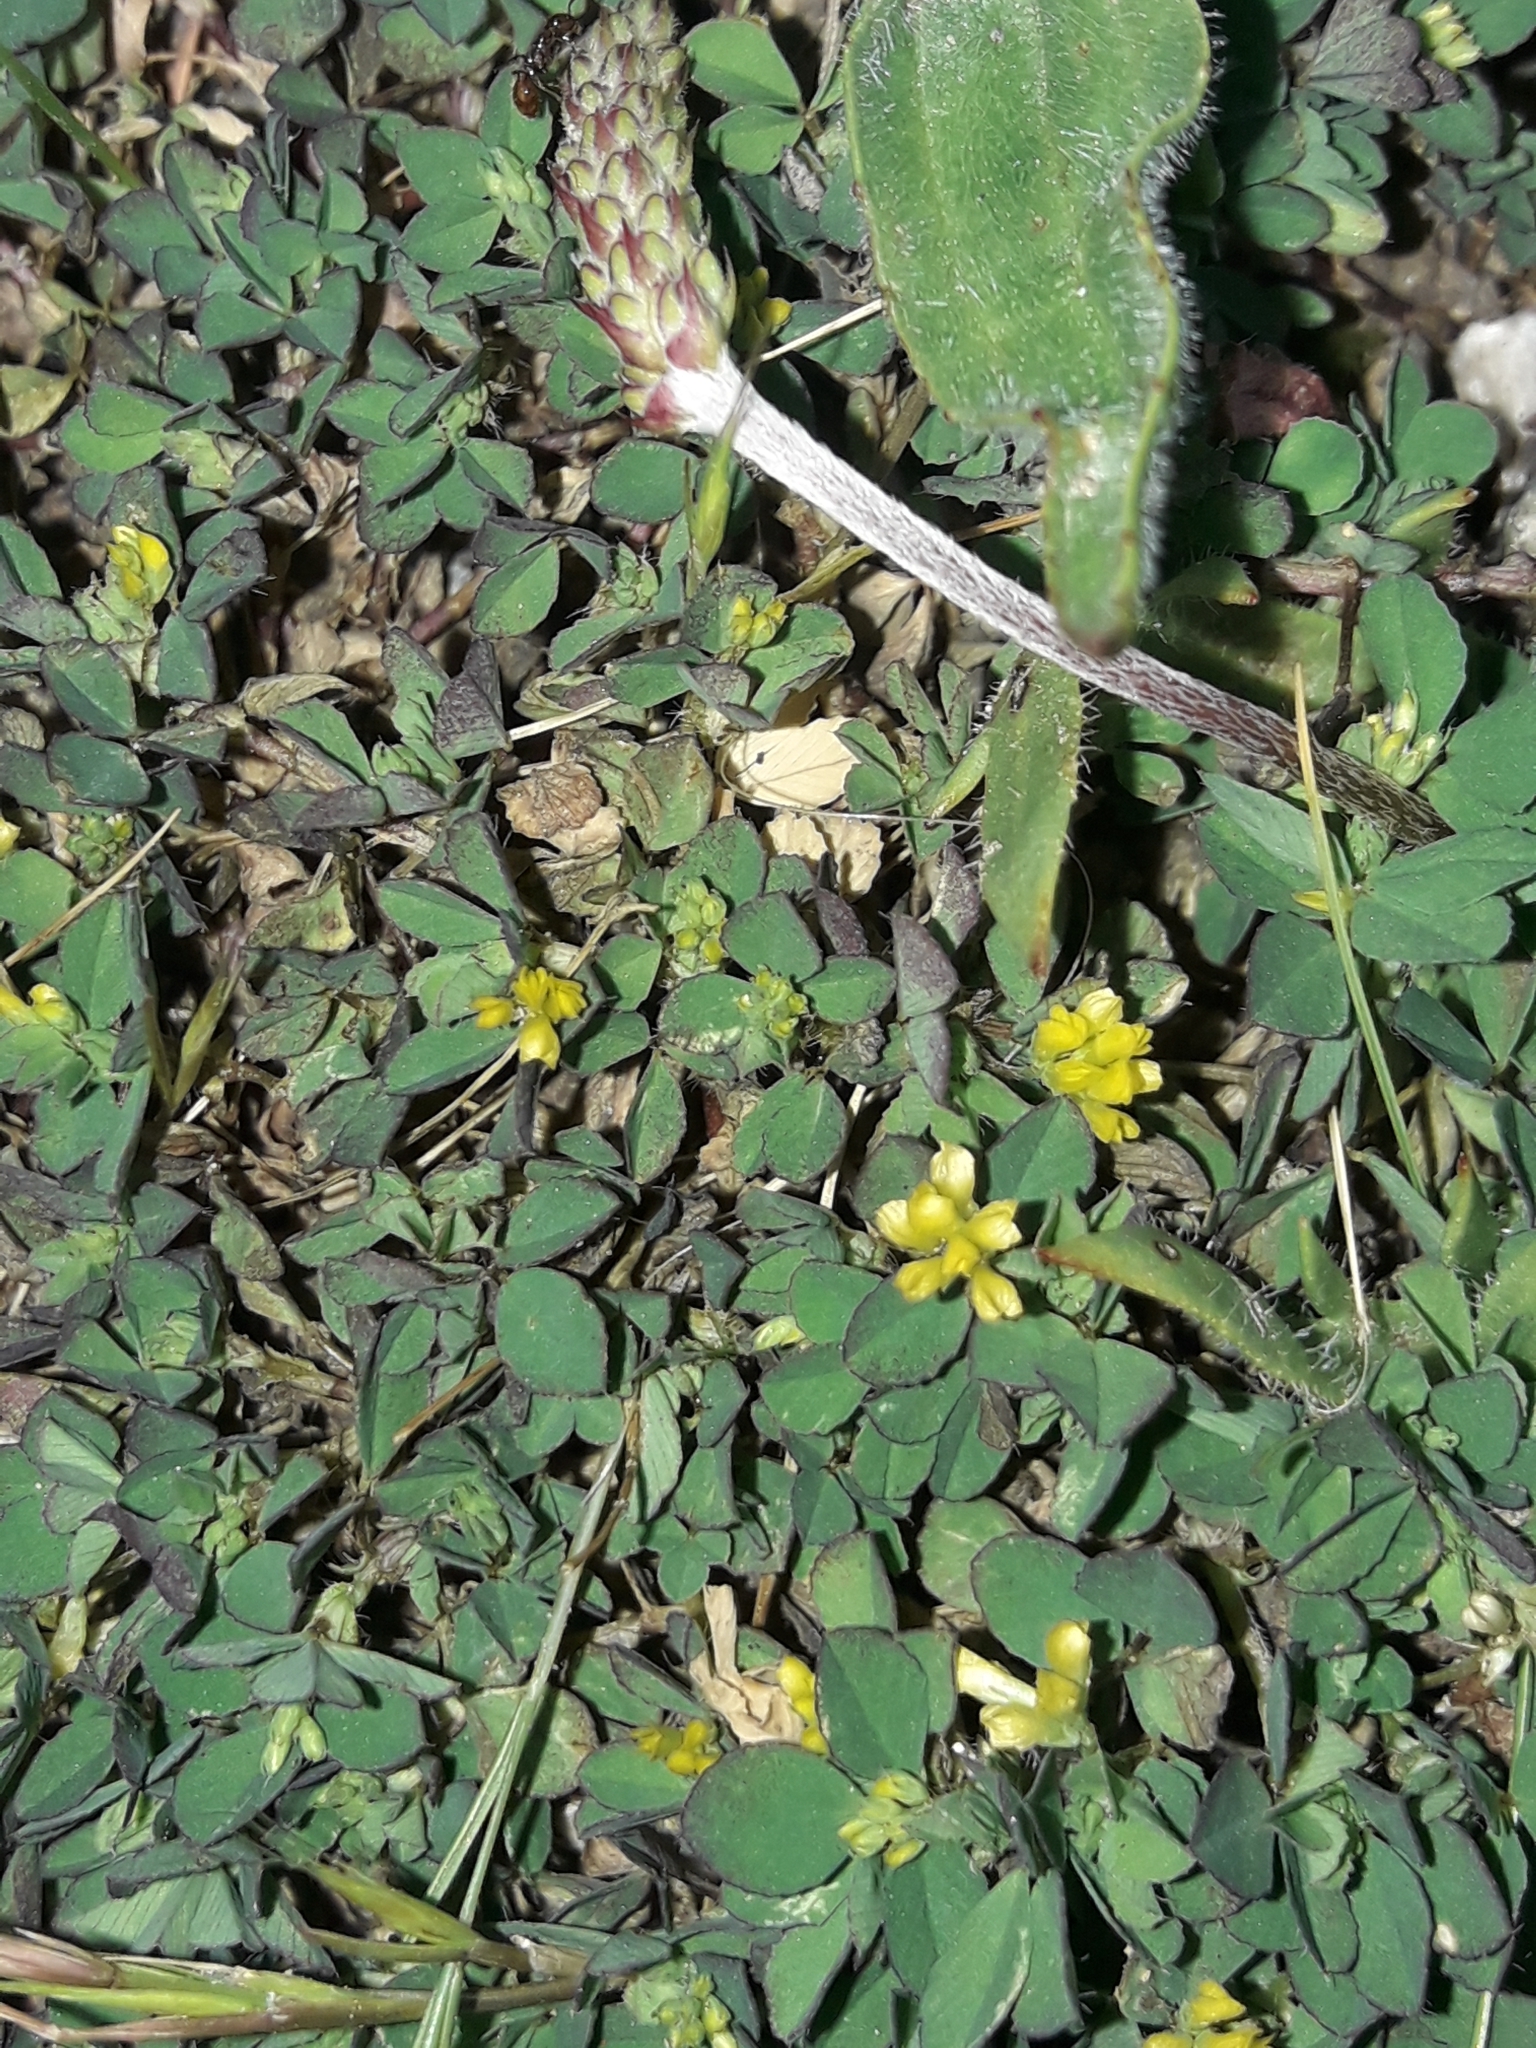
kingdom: Plantae
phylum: Tracheophyta
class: Magnoliopsida
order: Fabales
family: Fabaceae
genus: Trifolium
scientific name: Trifolium dubium
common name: Suckling clover
